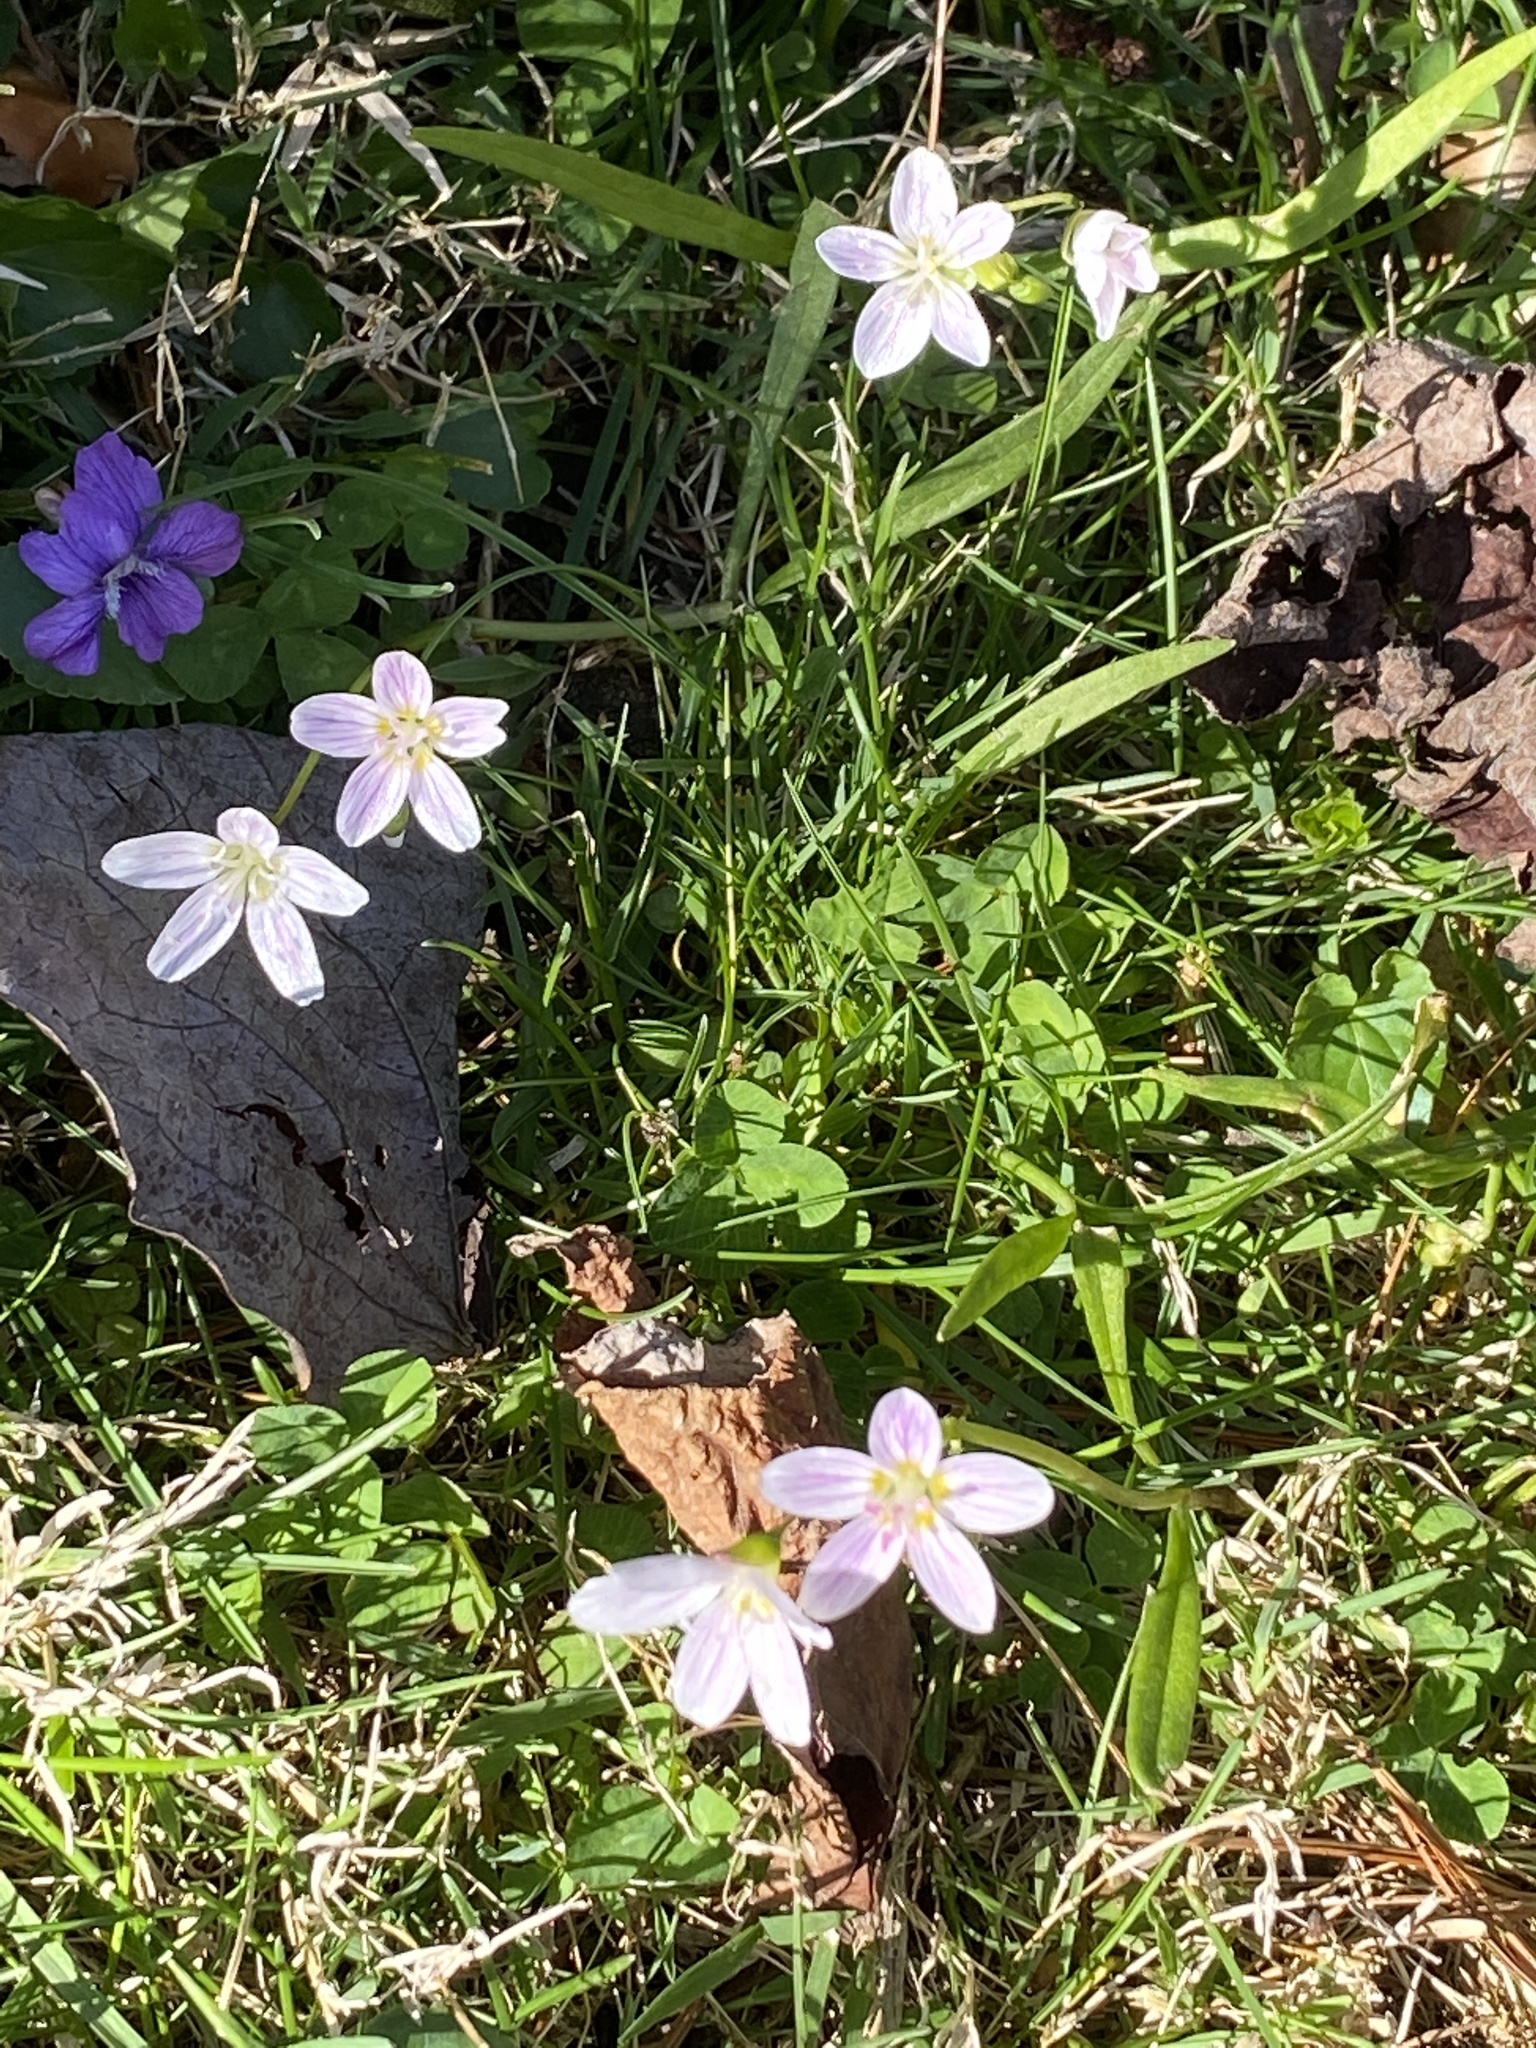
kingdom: Plantae
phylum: Tracheophyta
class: Magnoliopsida
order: Caryophyllales
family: Montiaceae
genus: Claytonia
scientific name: Claytonia virginica
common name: Virginia springbeauty
